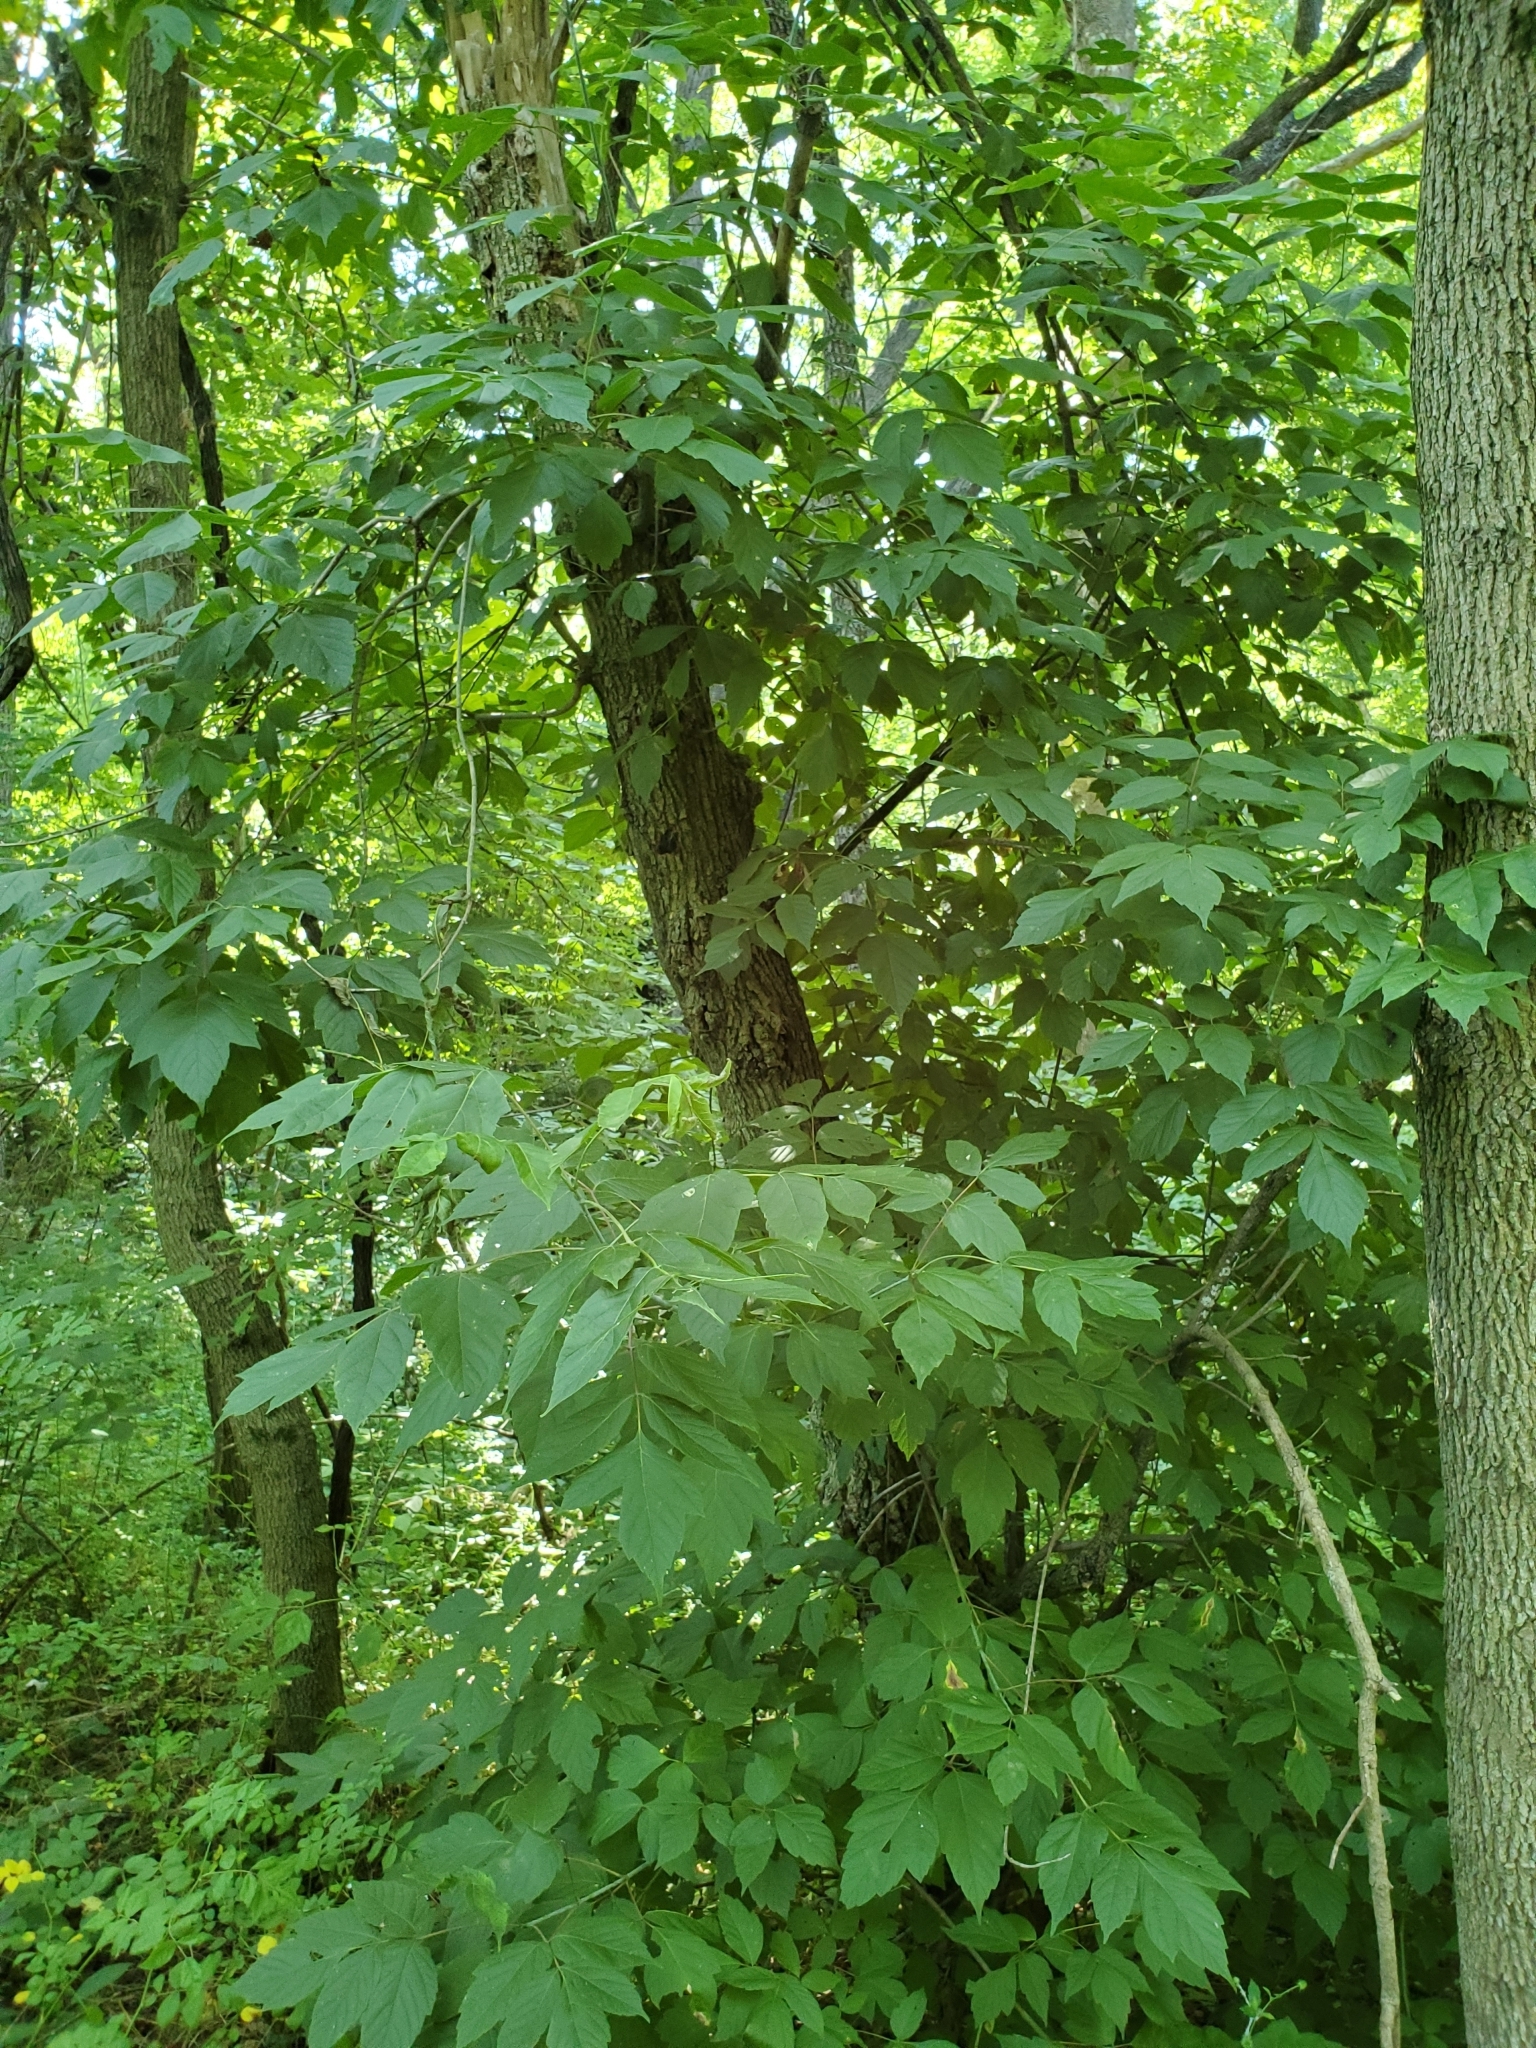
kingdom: Plantae
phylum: Tracheophyta
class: Magnoliopsida
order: Sapindales
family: Sapindaceae
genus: Acer
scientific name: Acer negundo
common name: Ashleaf maple
